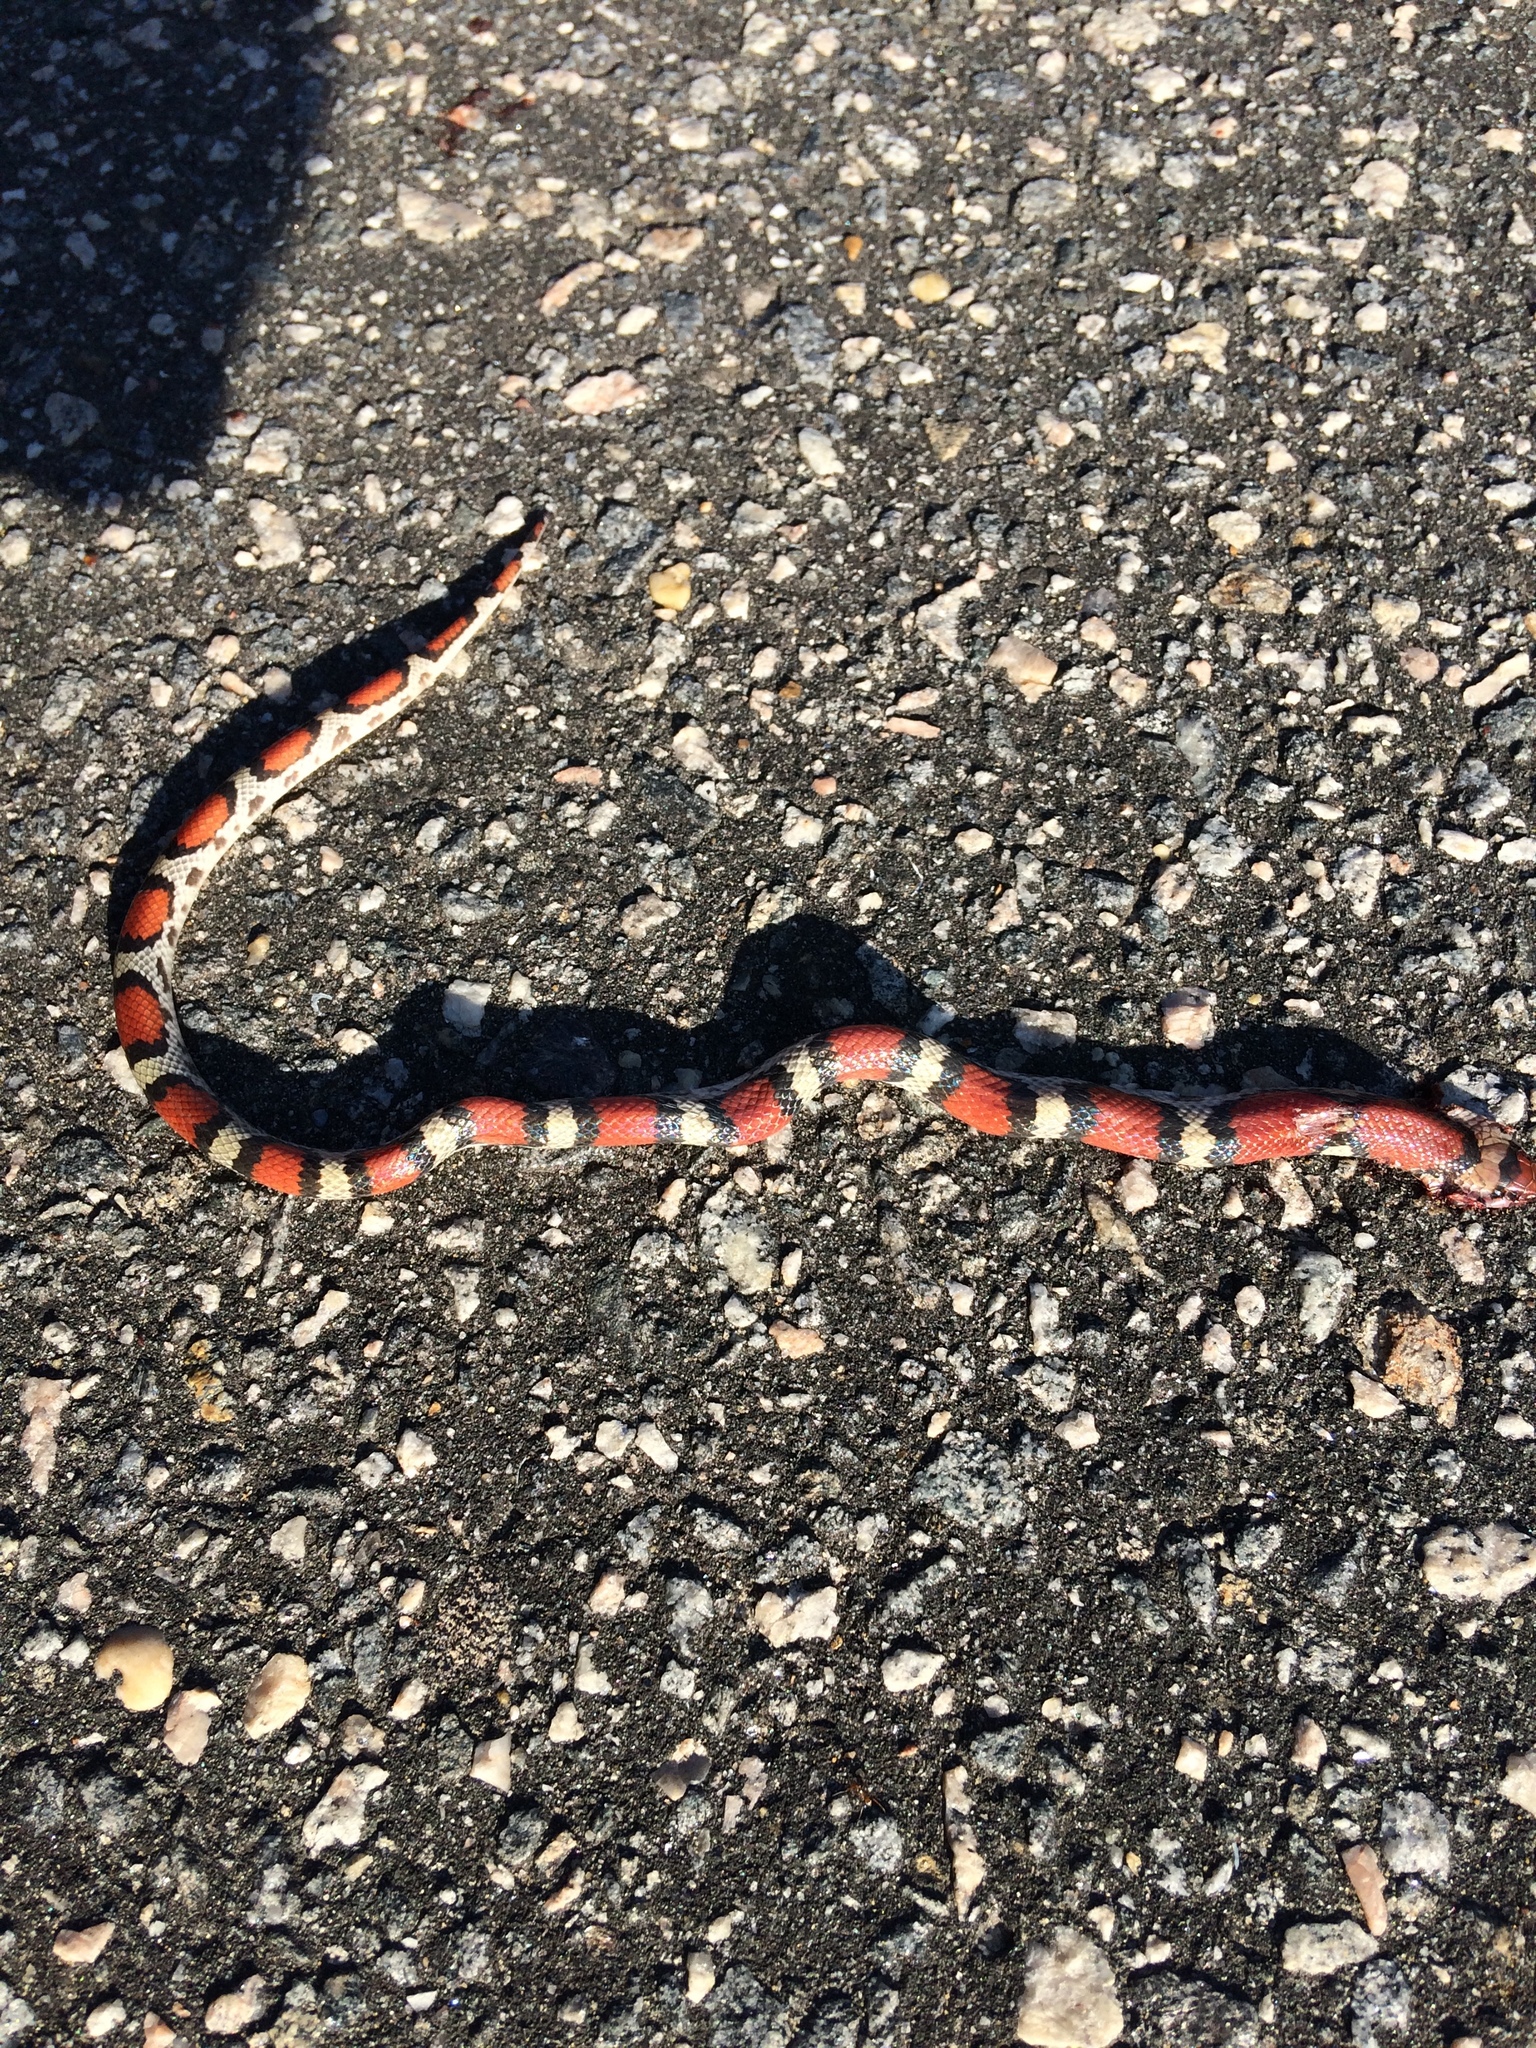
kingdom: Animalia
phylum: Chordata
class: Squamata
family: Colubridae
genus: Cemophora
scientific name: Cemophora coccinea
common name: Scarlet snake
